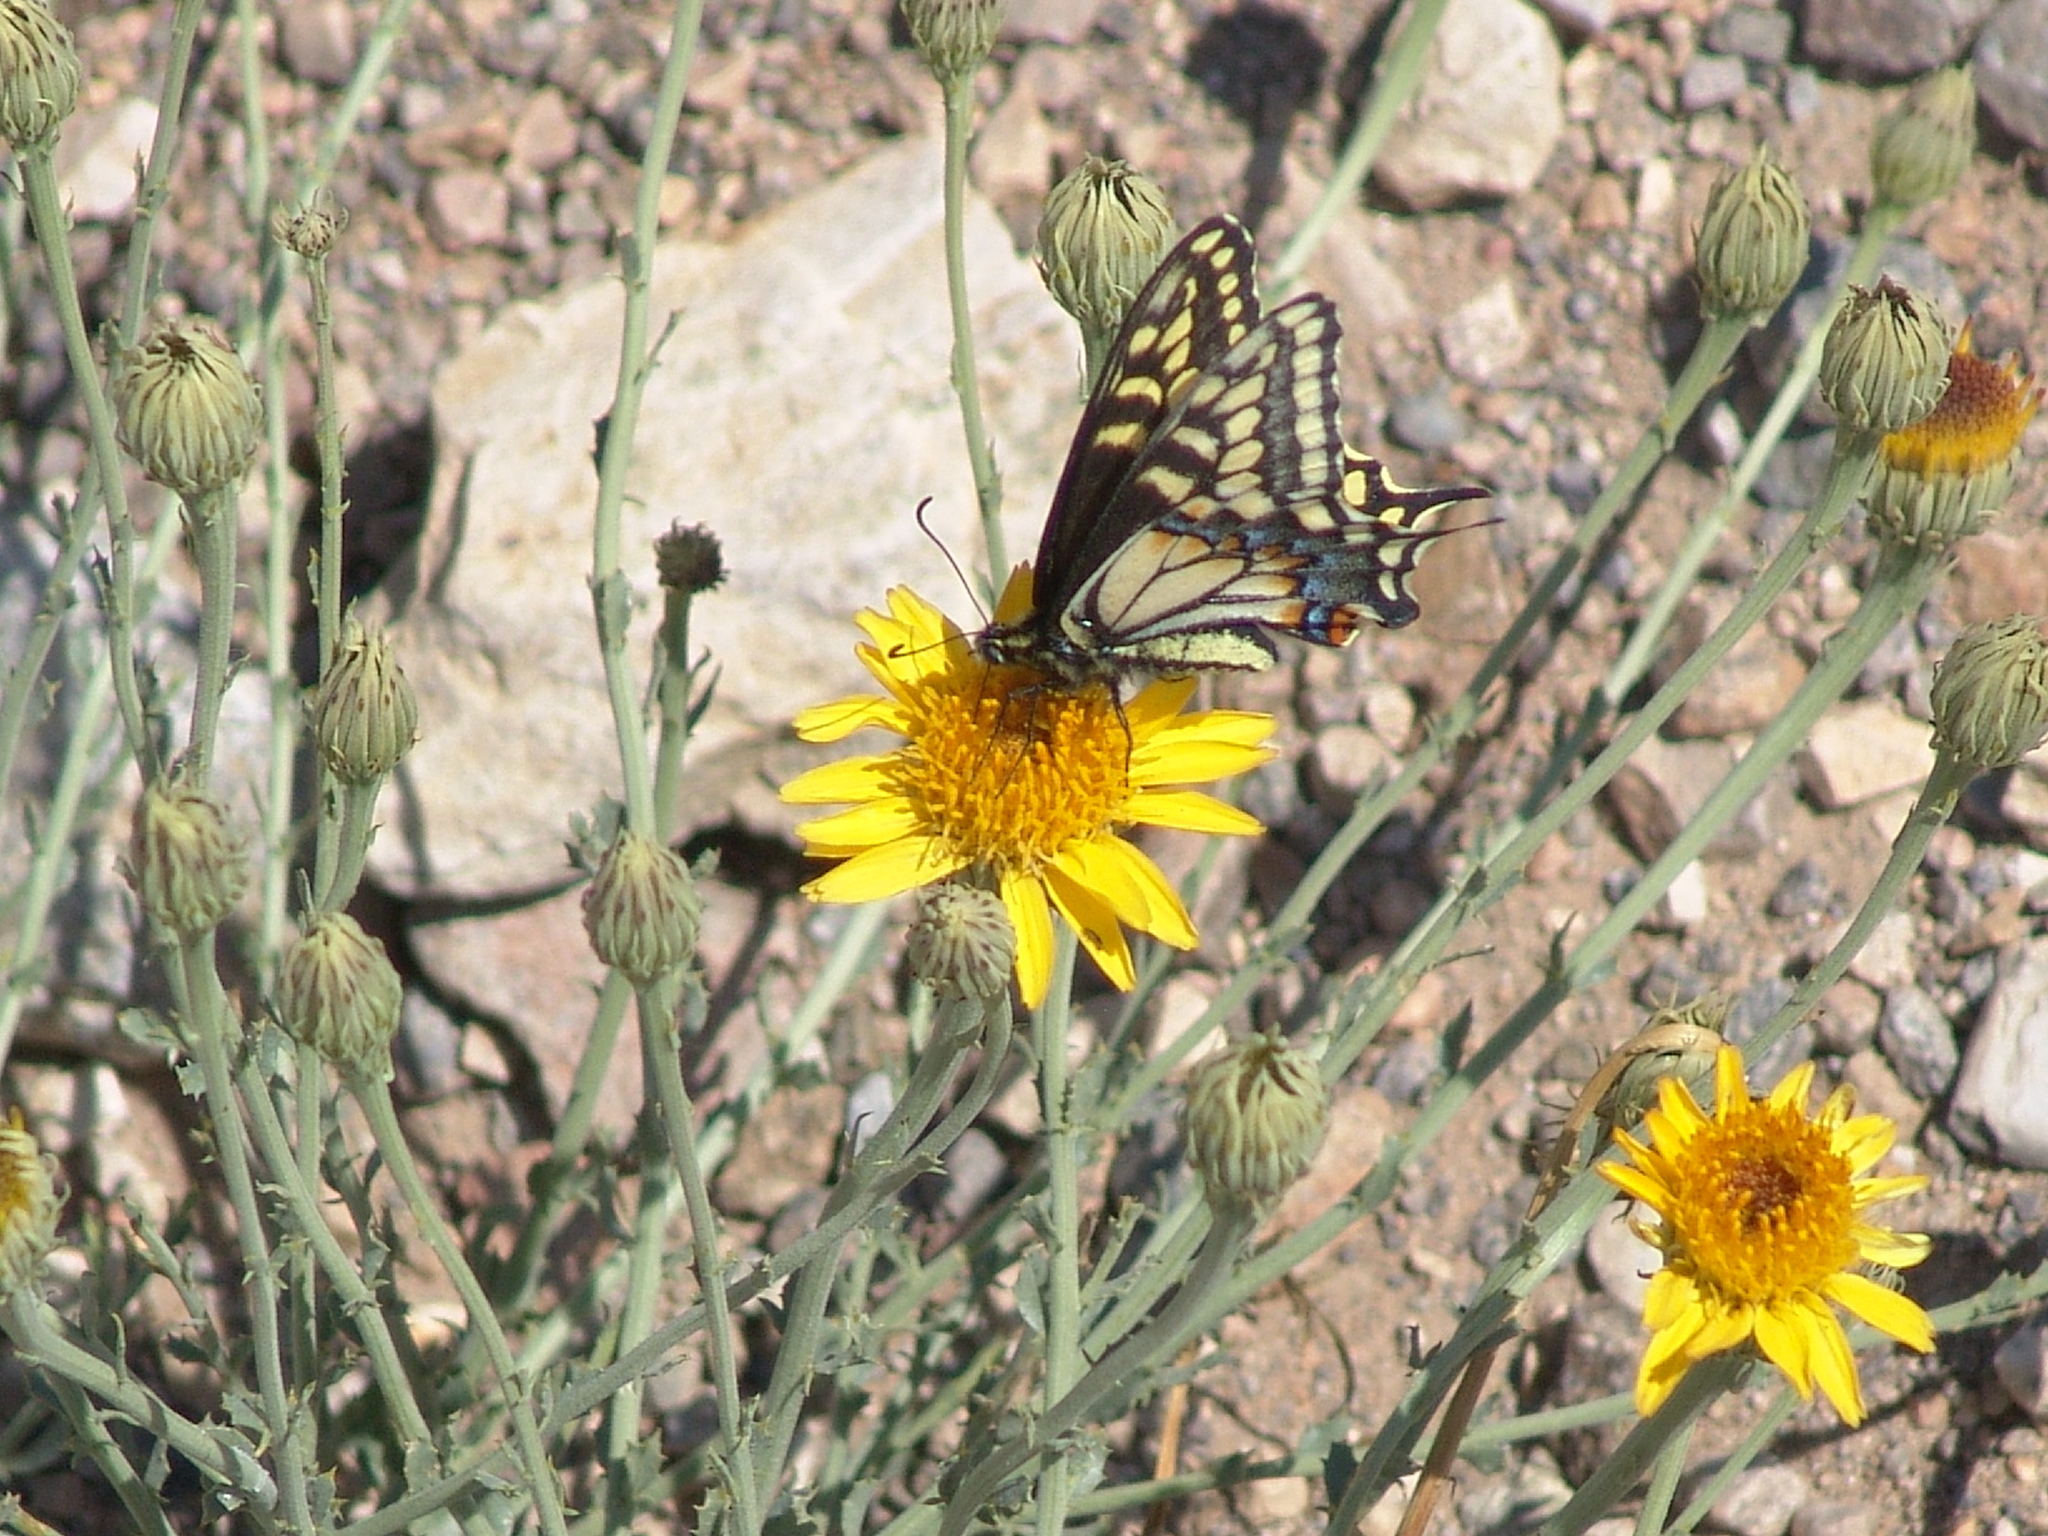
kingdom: Animalia
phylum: Arthropoda
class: Insecta
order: Lepidoptera
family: Papilionidae
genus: Papilio
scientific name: Papilio polyxenes
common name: Black swallowtail
